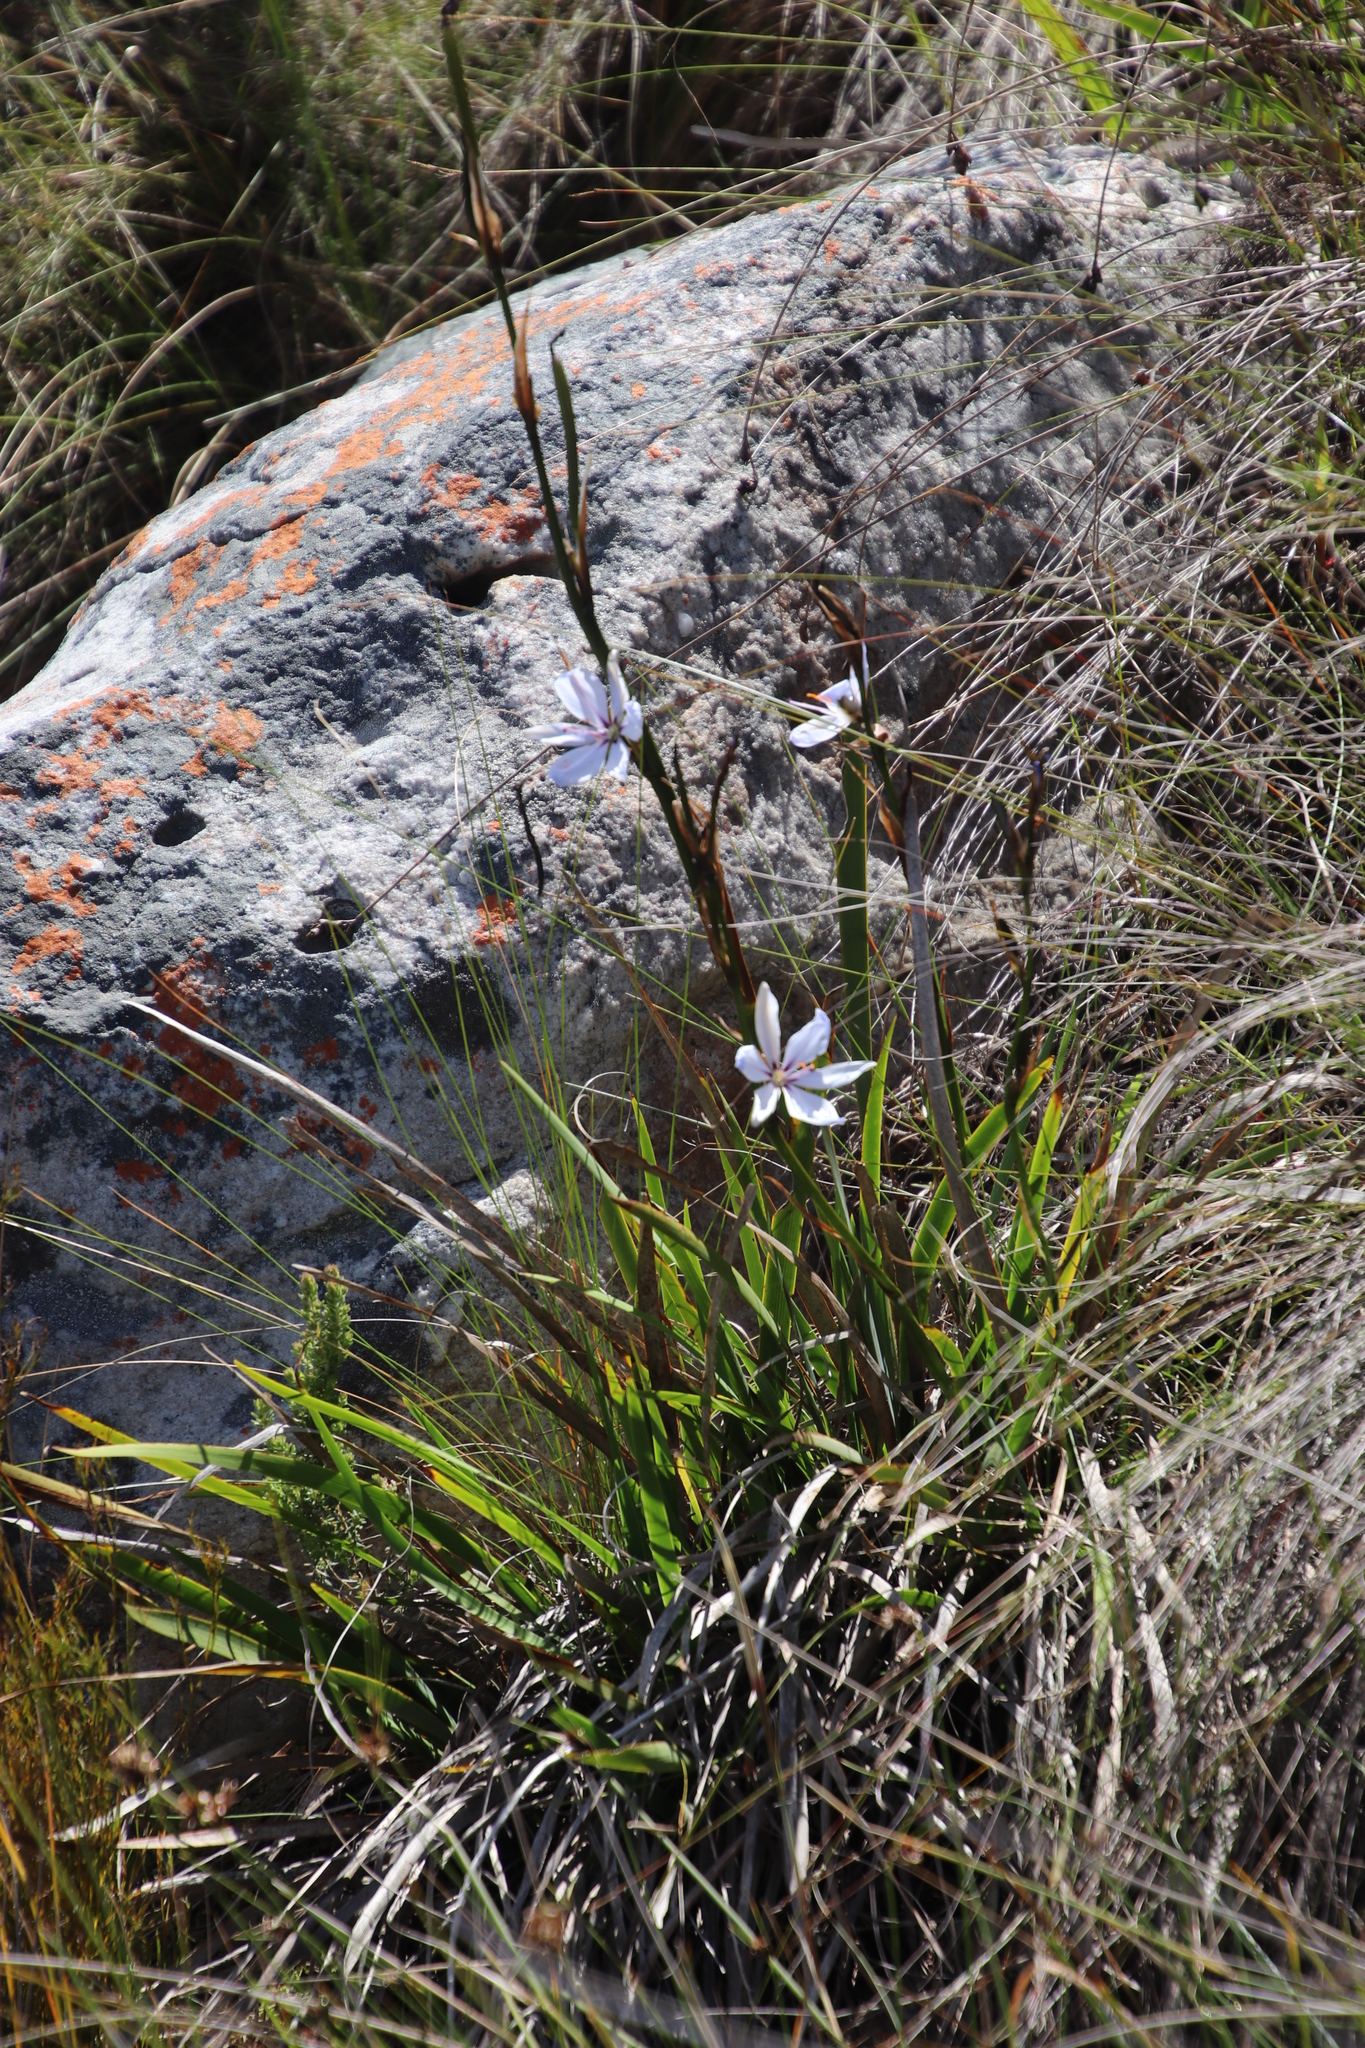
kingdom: Plantae
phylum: Tracheophyta
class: Liliopsida
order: Asparagales
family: Iridaceae
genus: Aristea
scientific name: Aristea spiralis
